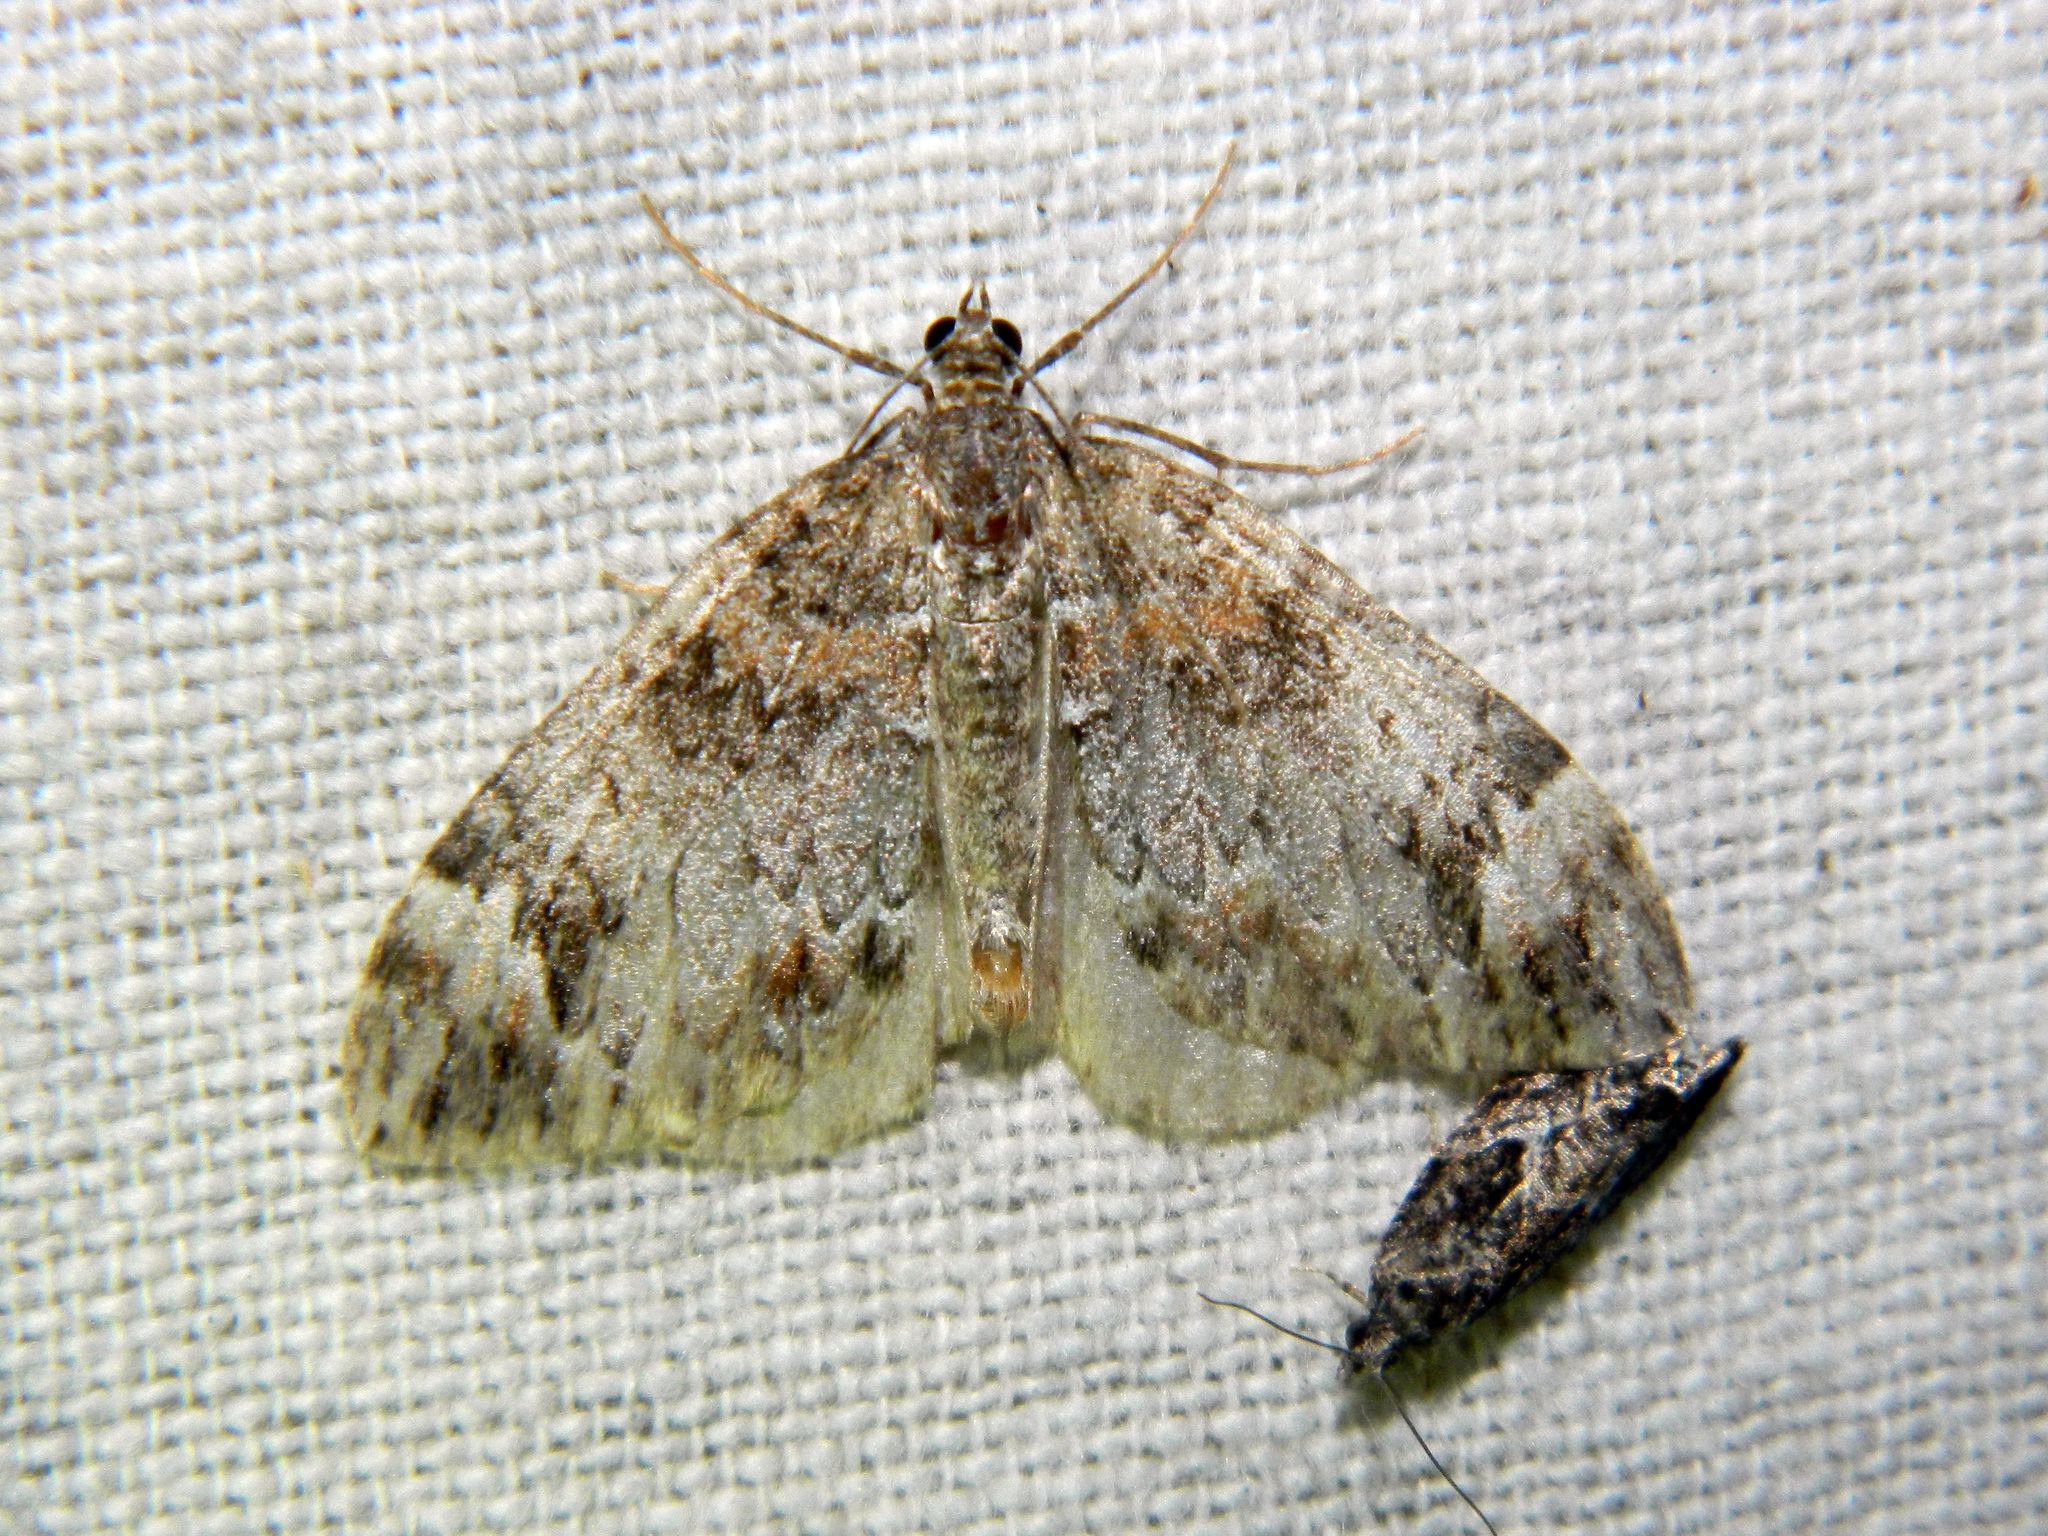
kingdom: Animalia
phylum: Arthropoda
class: Insecta
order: Lepidoptera
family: Geometridae
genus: Dysstroma
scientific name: Dysstroma citrata
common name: Dark marbled carpet
